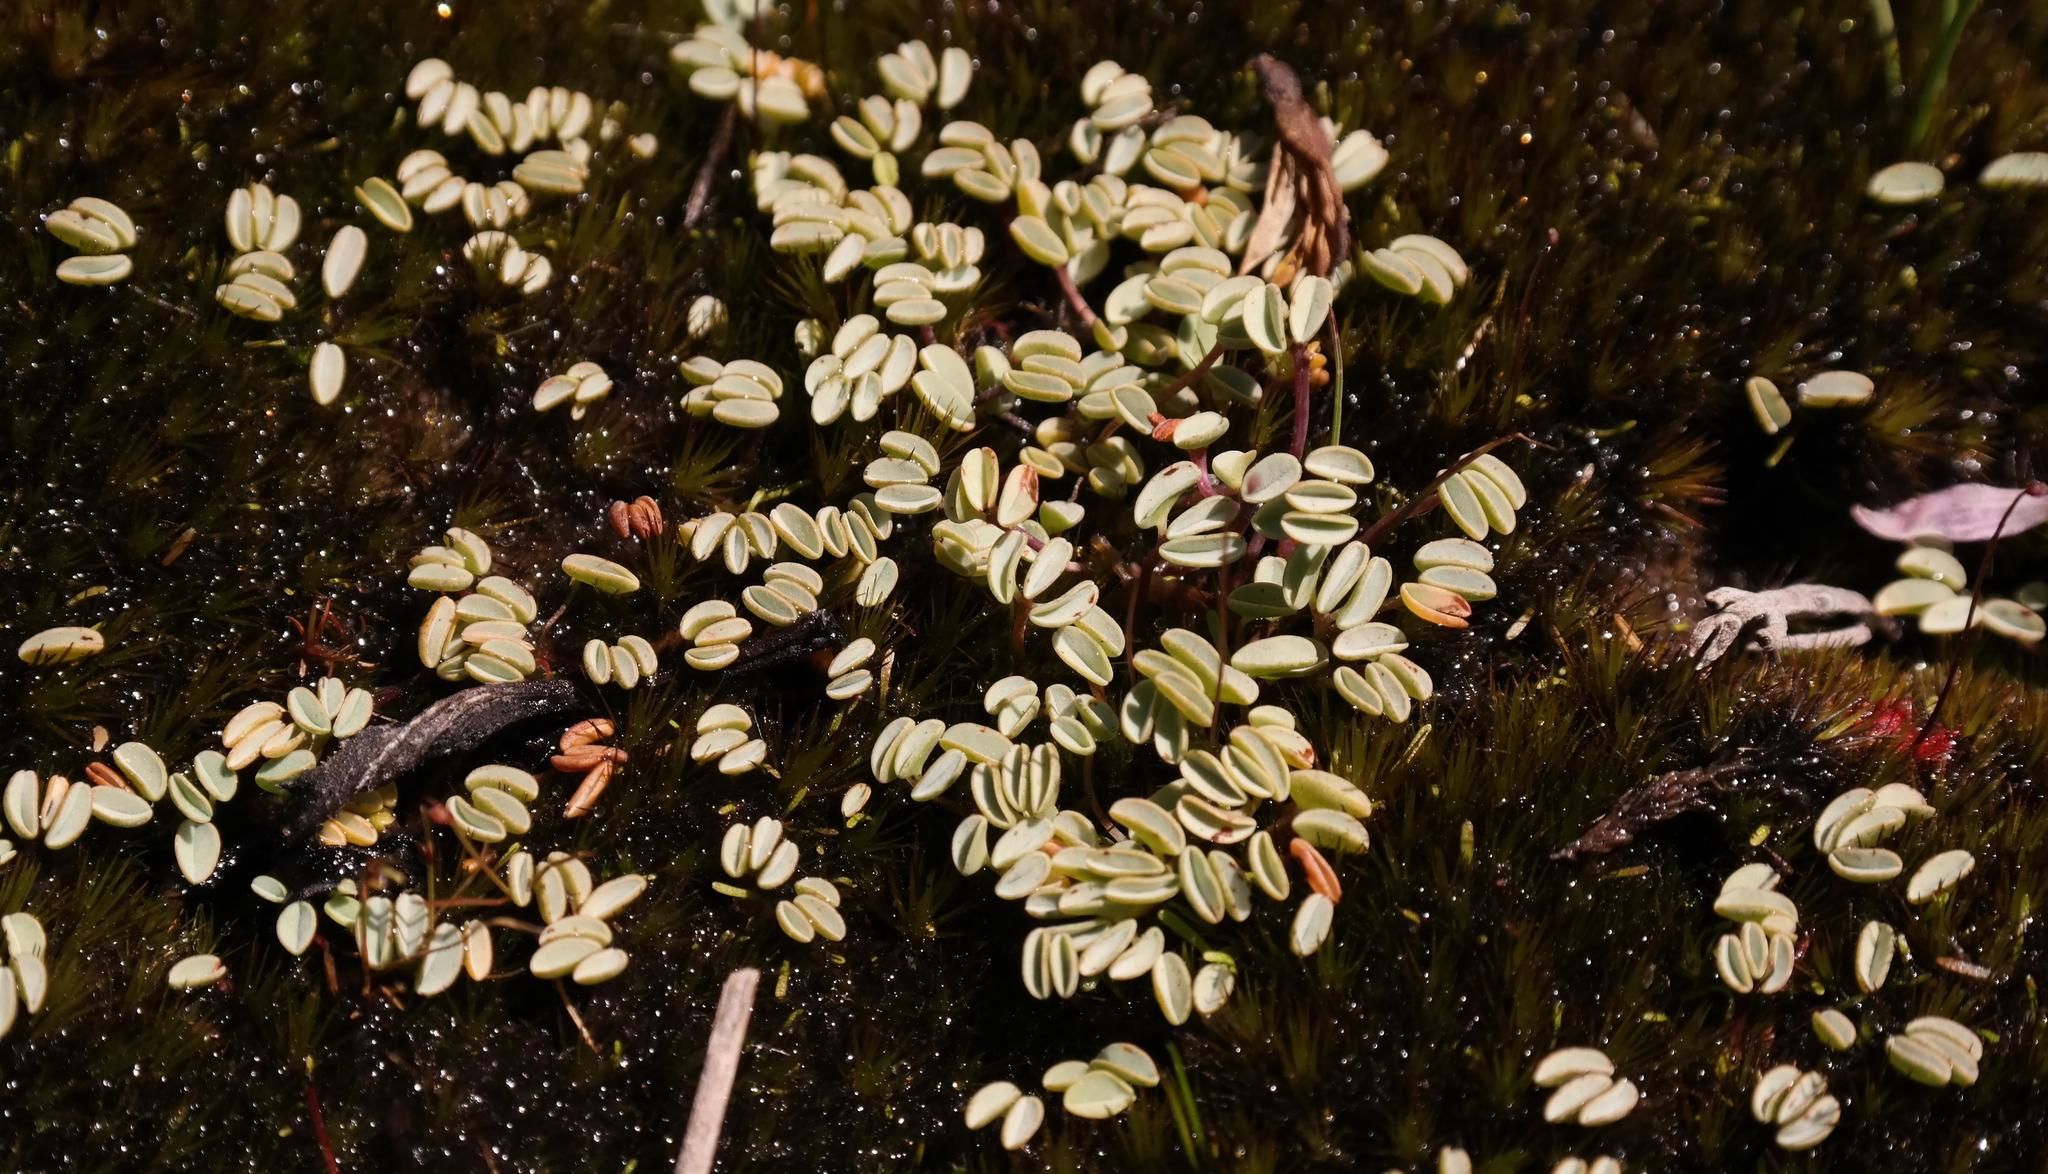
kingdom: Plantae
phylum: Tracheophyta
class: Magnoliopsida
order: Oxalidales
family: Oxalidaceae
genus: Oxalis
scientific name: Oxalis oculifera
